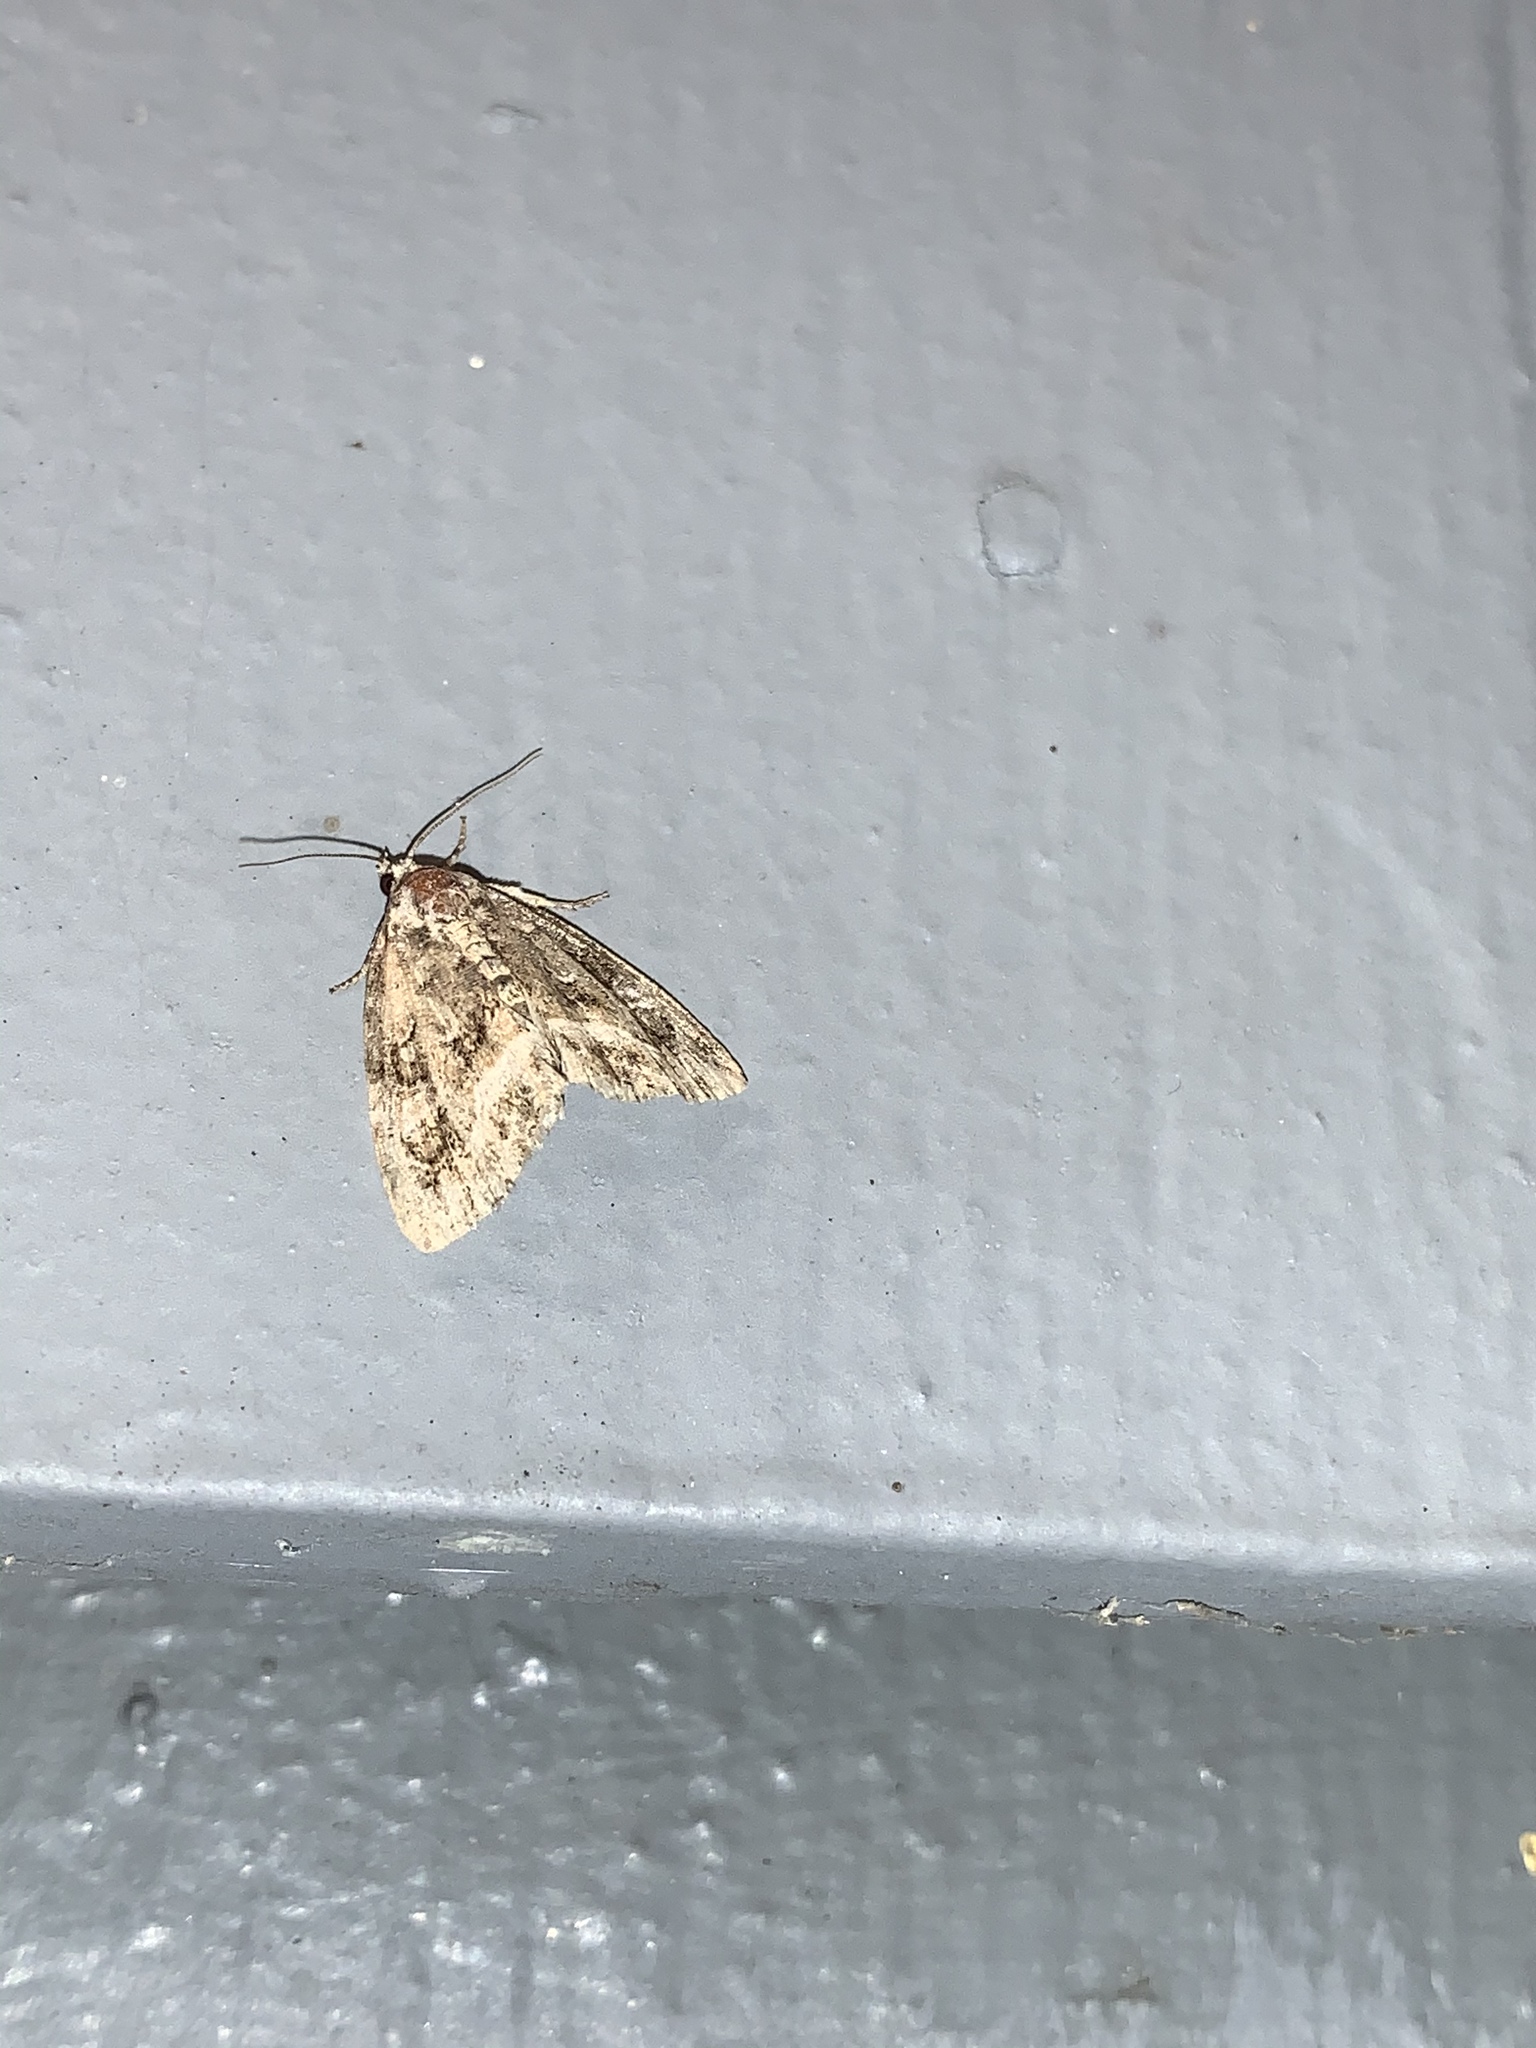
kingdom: Animalia
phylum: Arthropoda
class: Insecta
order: Lepidoptera
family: Noctuidae
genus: Protodeltote
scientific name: Protodeltote muscosula
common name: Large mossy glyph
